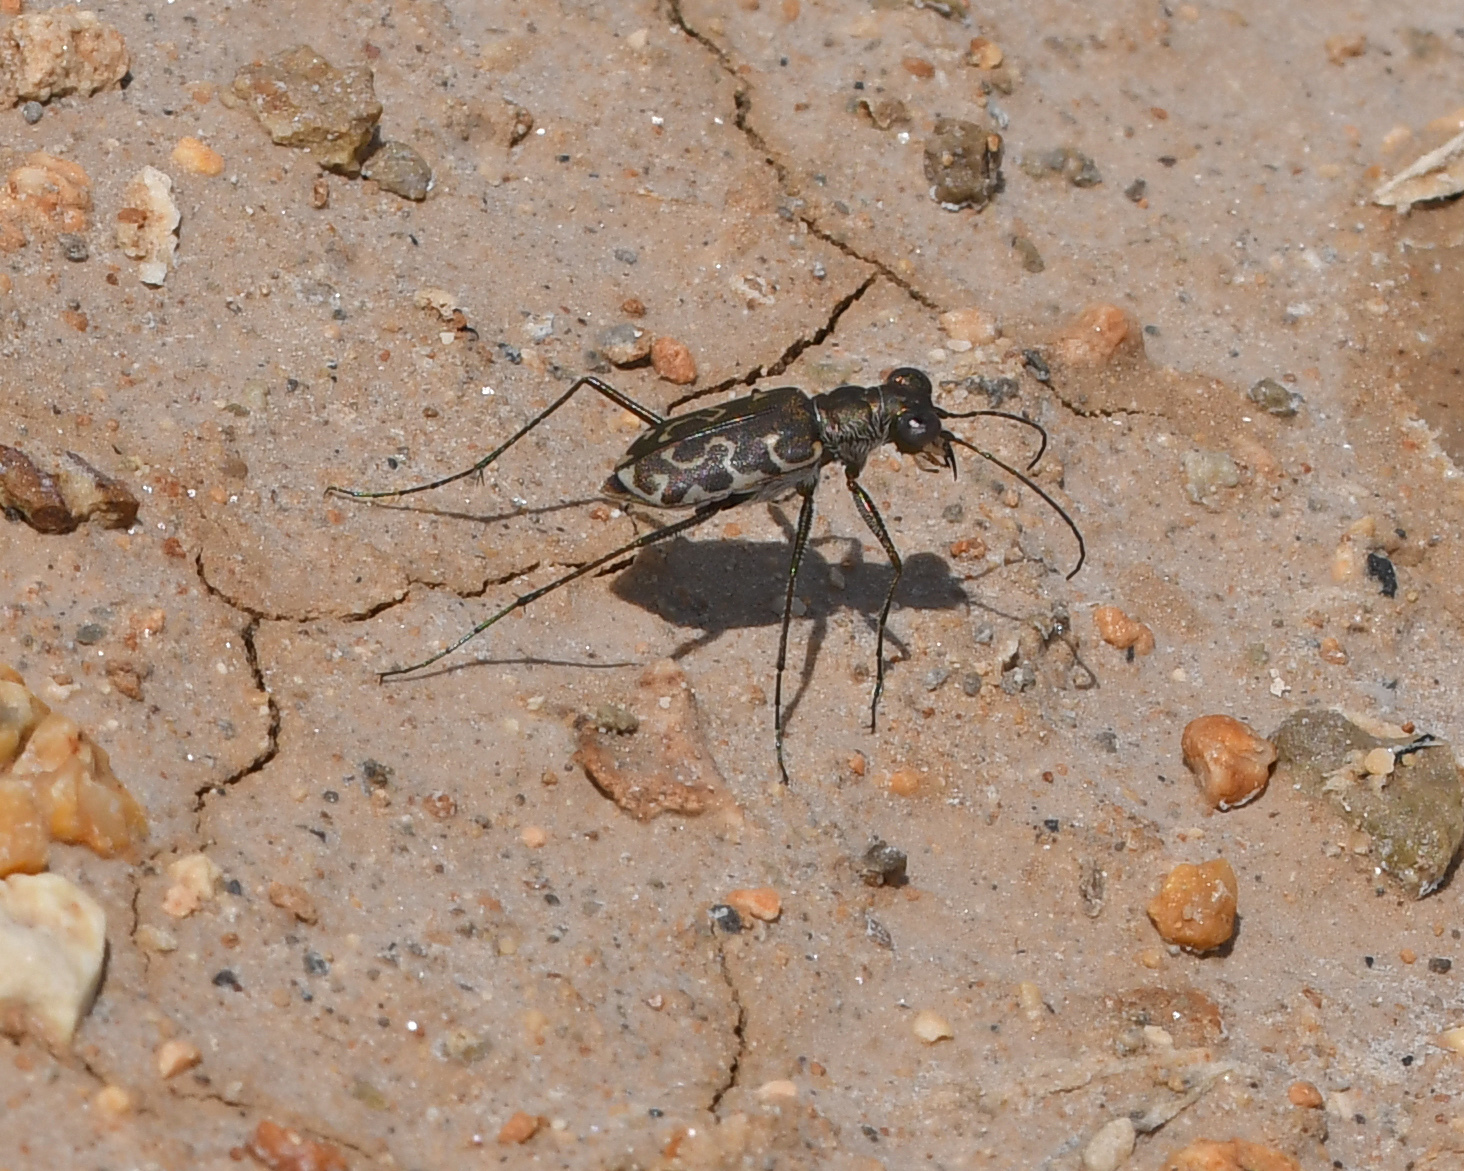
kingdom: Animalia
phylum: Arthropoda
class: Insecta
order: Coleoptera
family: Carabidae
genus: Cicindela
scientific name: Cicindela trifasciata
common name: Mudflat tiger beetle
